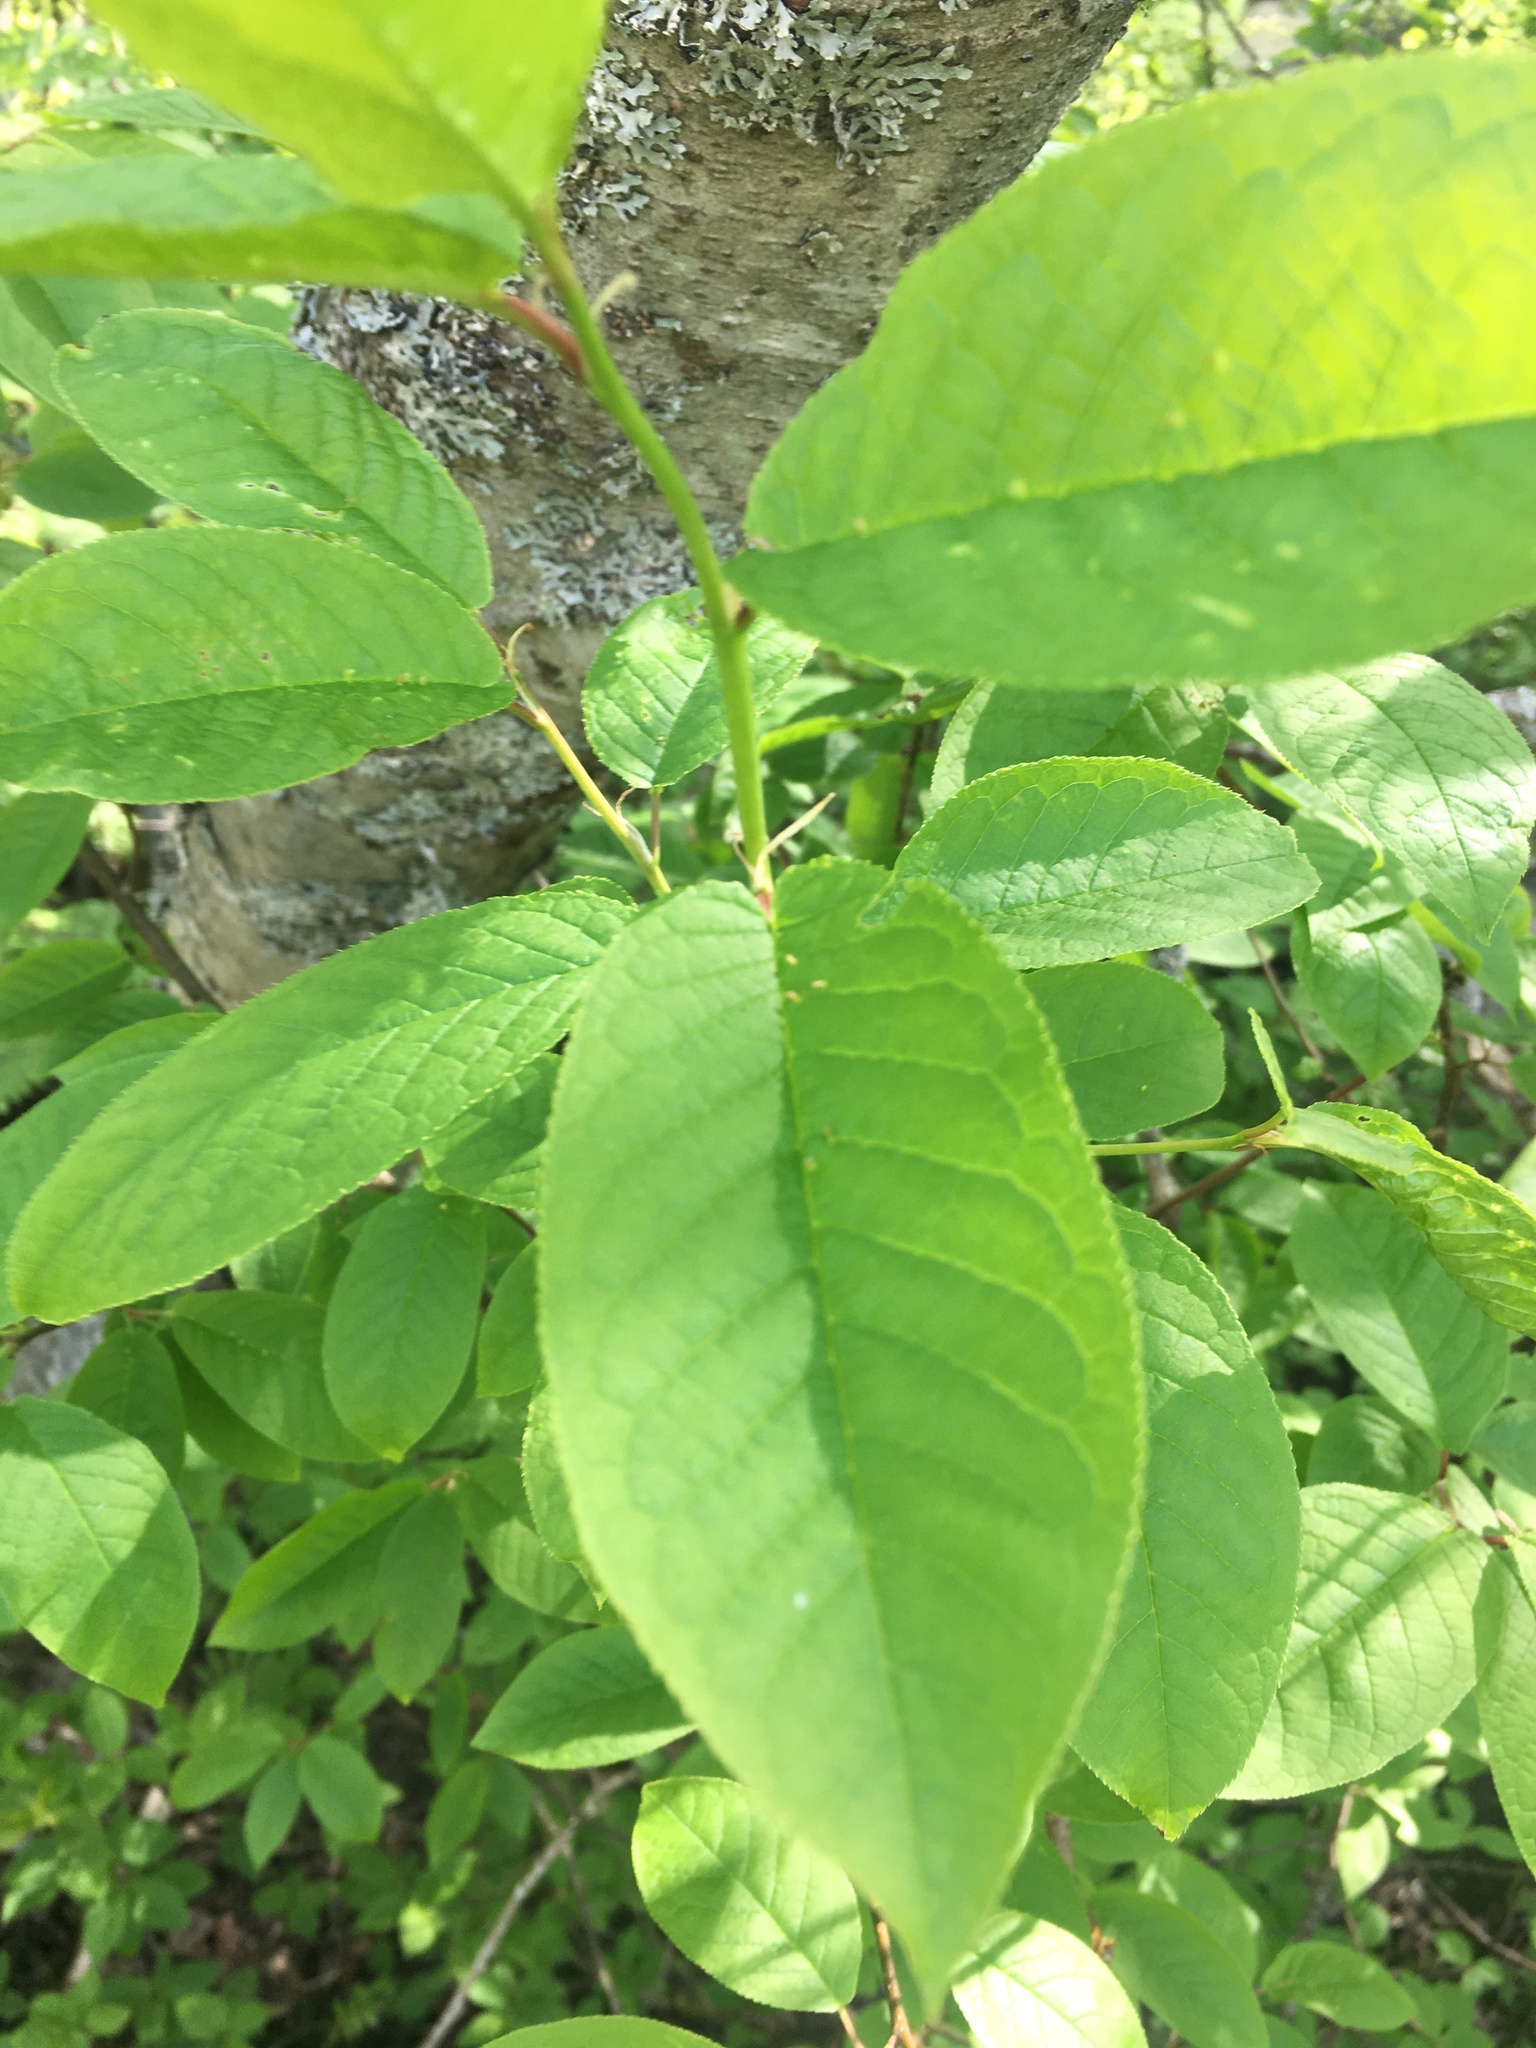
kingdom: Plantae
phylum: Tracheophyta
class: Magnoliopsida
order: Rosales
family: Rosaceae
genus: Prunus
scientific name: Prunus padus
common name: Bird cherry
